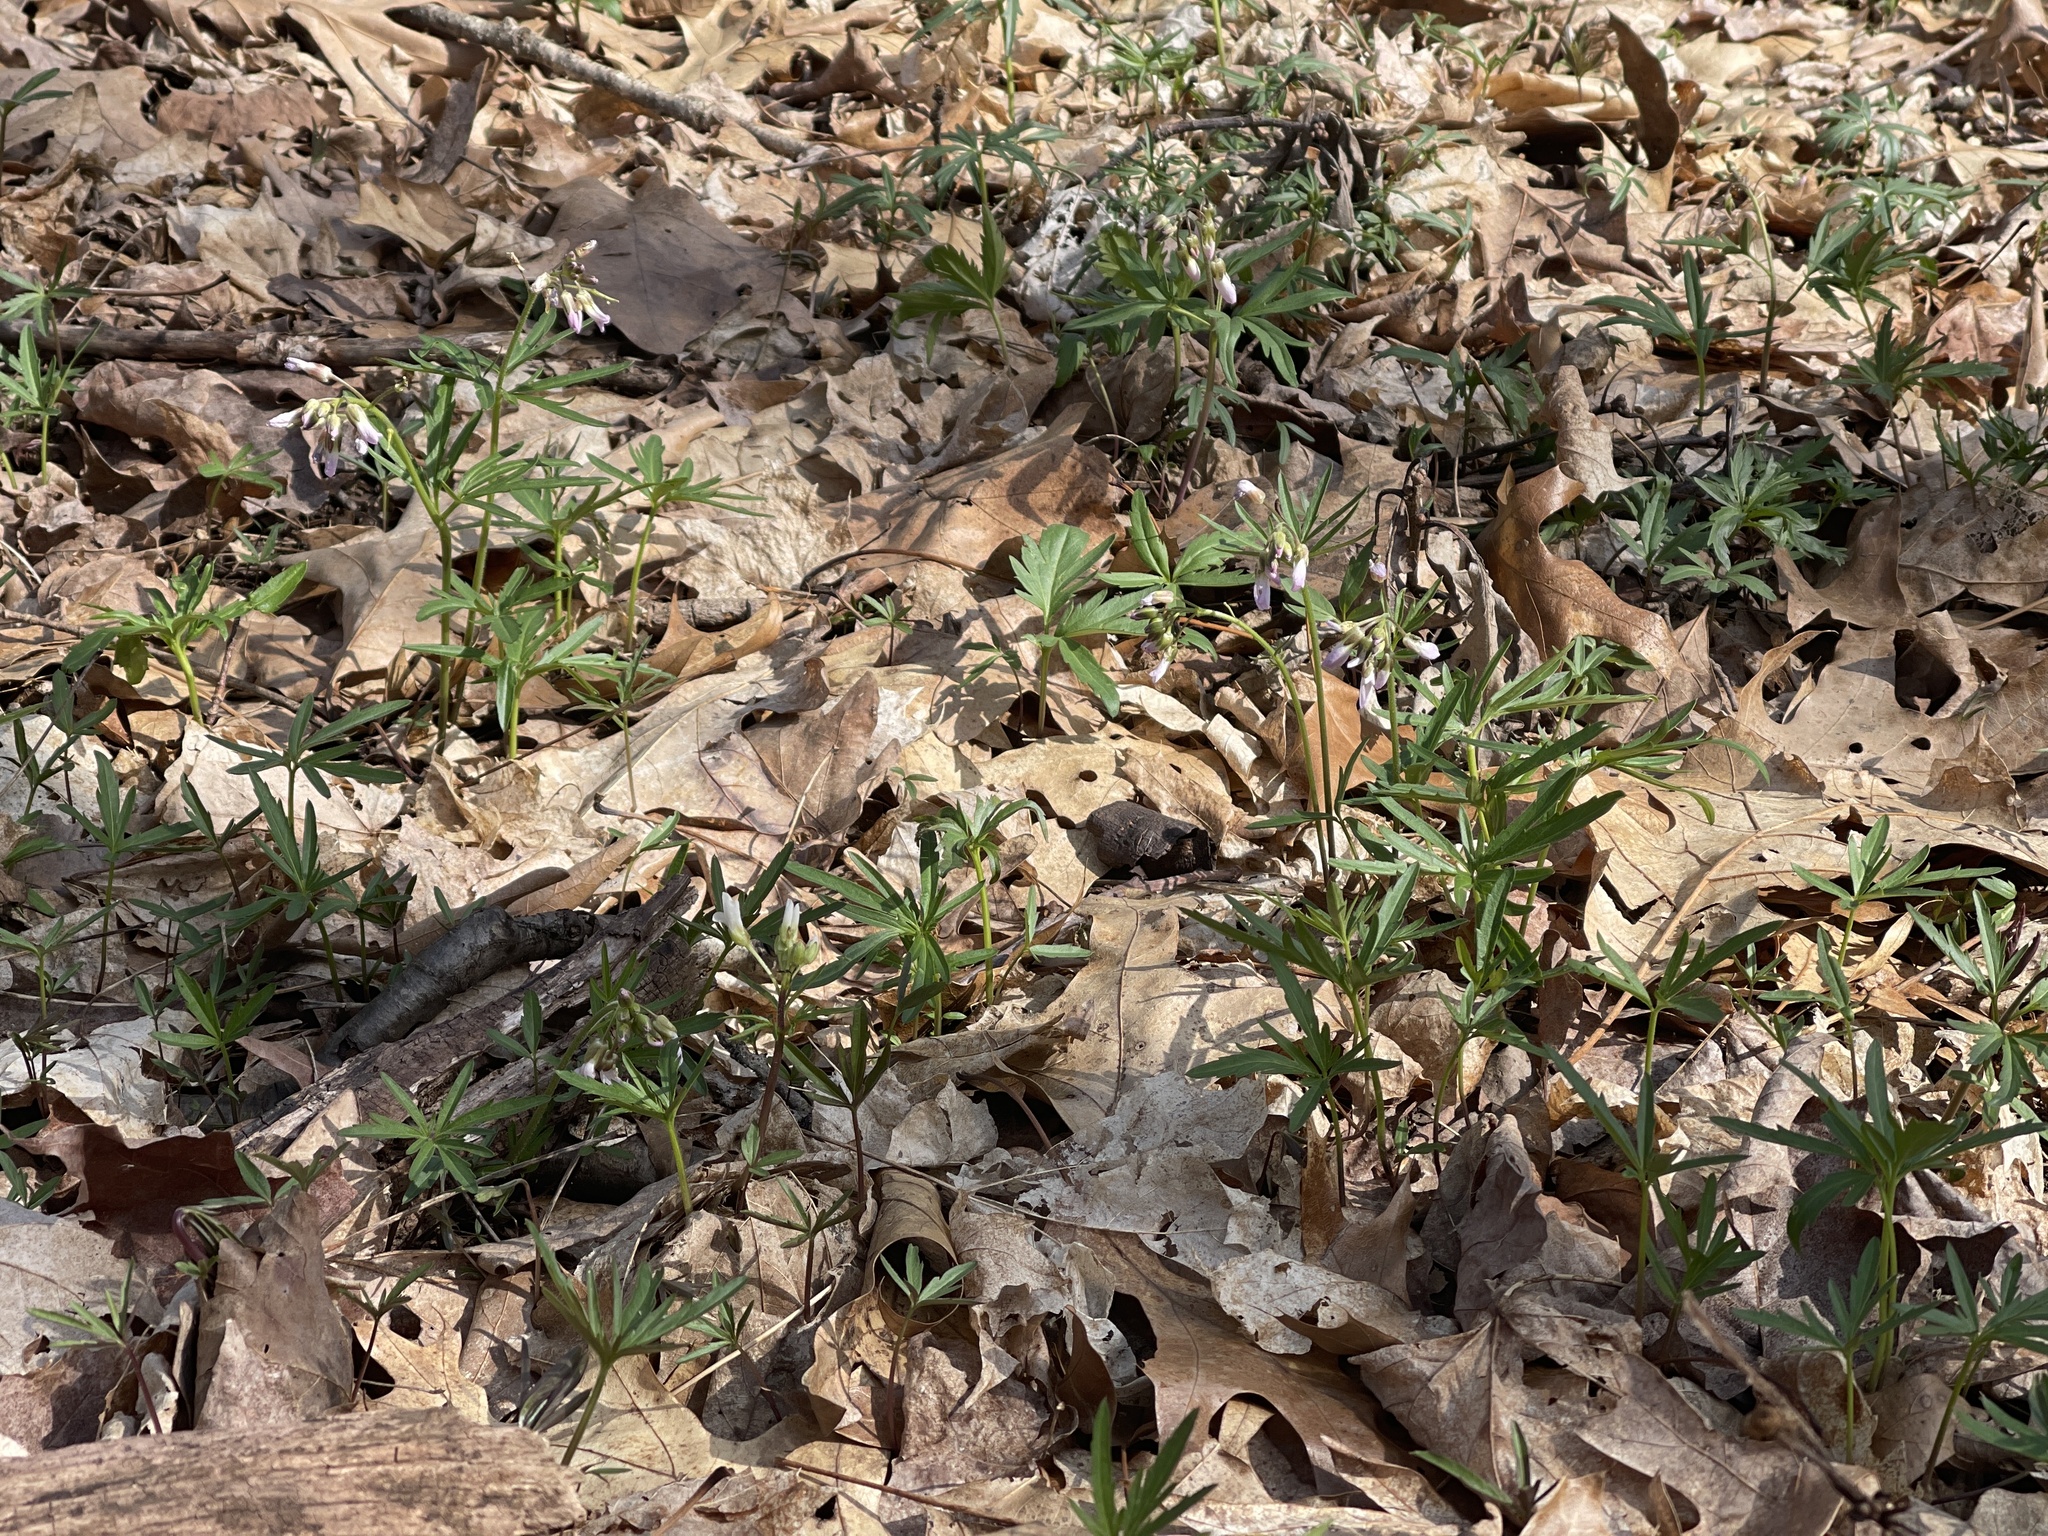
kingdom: Plantae
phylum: Tracheophyta
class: Magnoliopsida
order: Brassicales
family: Brassicaceae
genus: Cardamine
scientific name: Cardamine concatenata
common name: Cut-leaf toothcup
